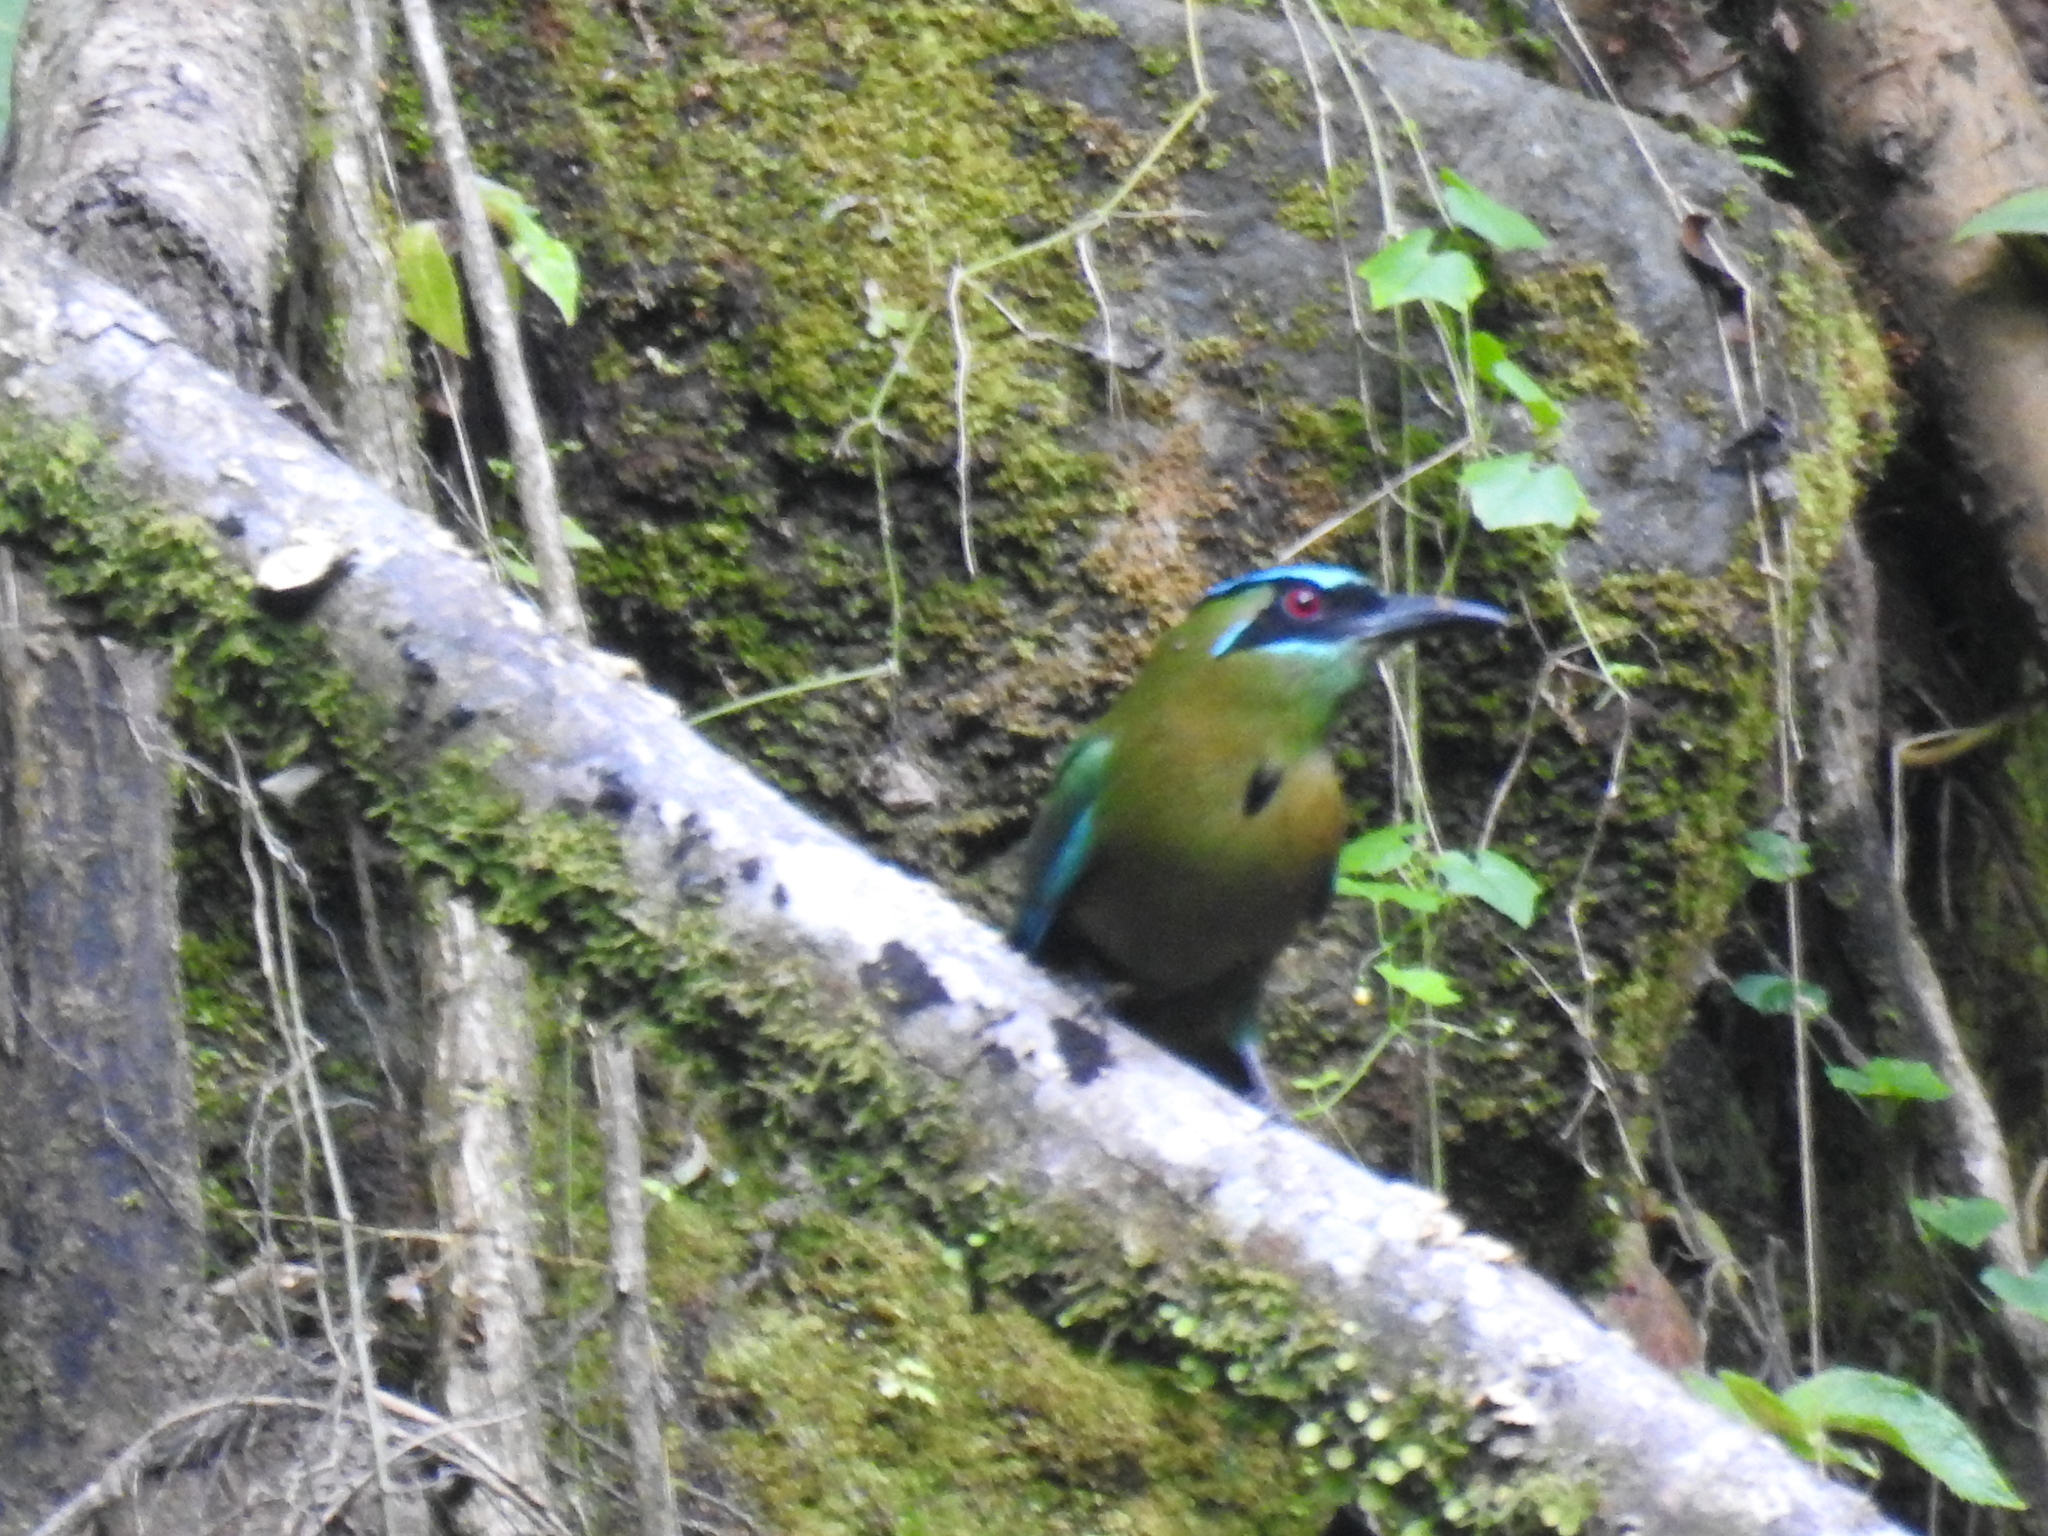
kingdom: Animalia
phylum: Chordata
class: Aves
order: Coraciiformes
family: Momotidae
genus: Momotus
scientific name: Momotus lessonii
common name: Lesson's motmot
